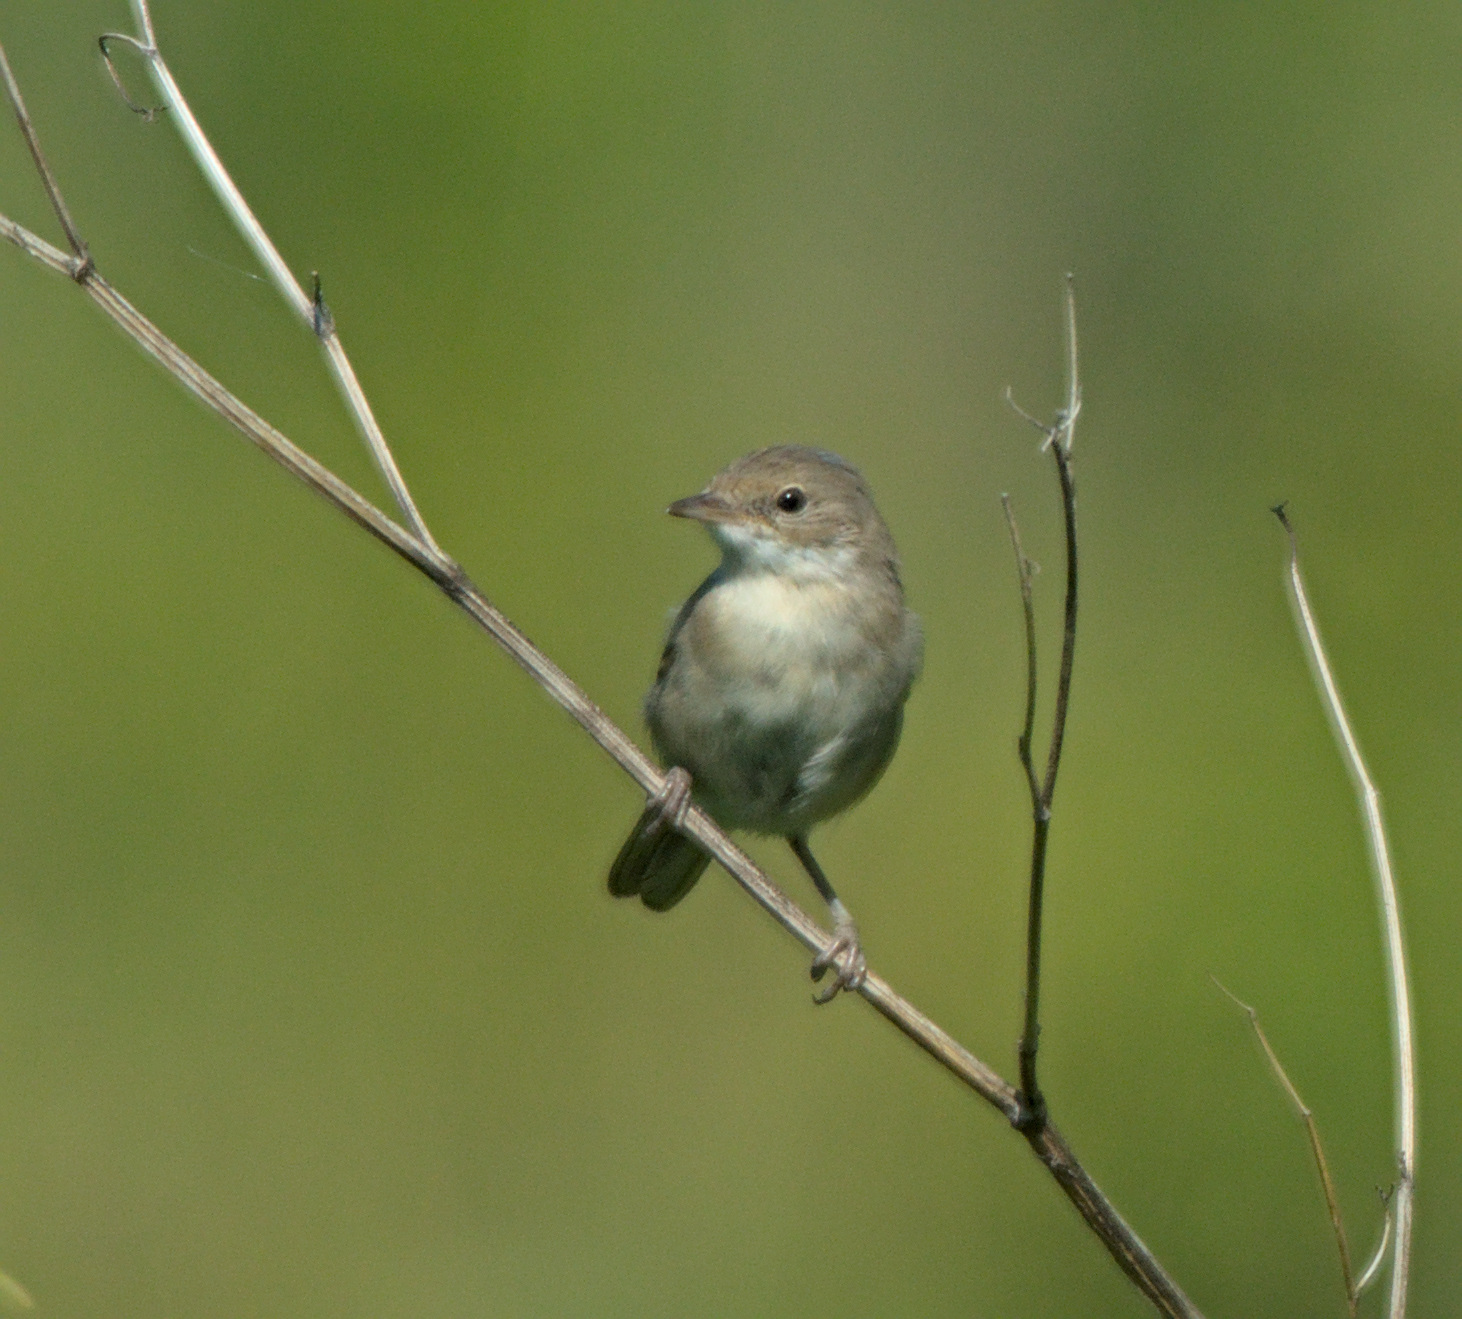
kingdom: Animalia
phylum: Chordata
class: Aves
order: Passeriformes
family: Sylviidae
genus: Sylvia
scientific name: Sylvia communis
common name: Common whitethroat
